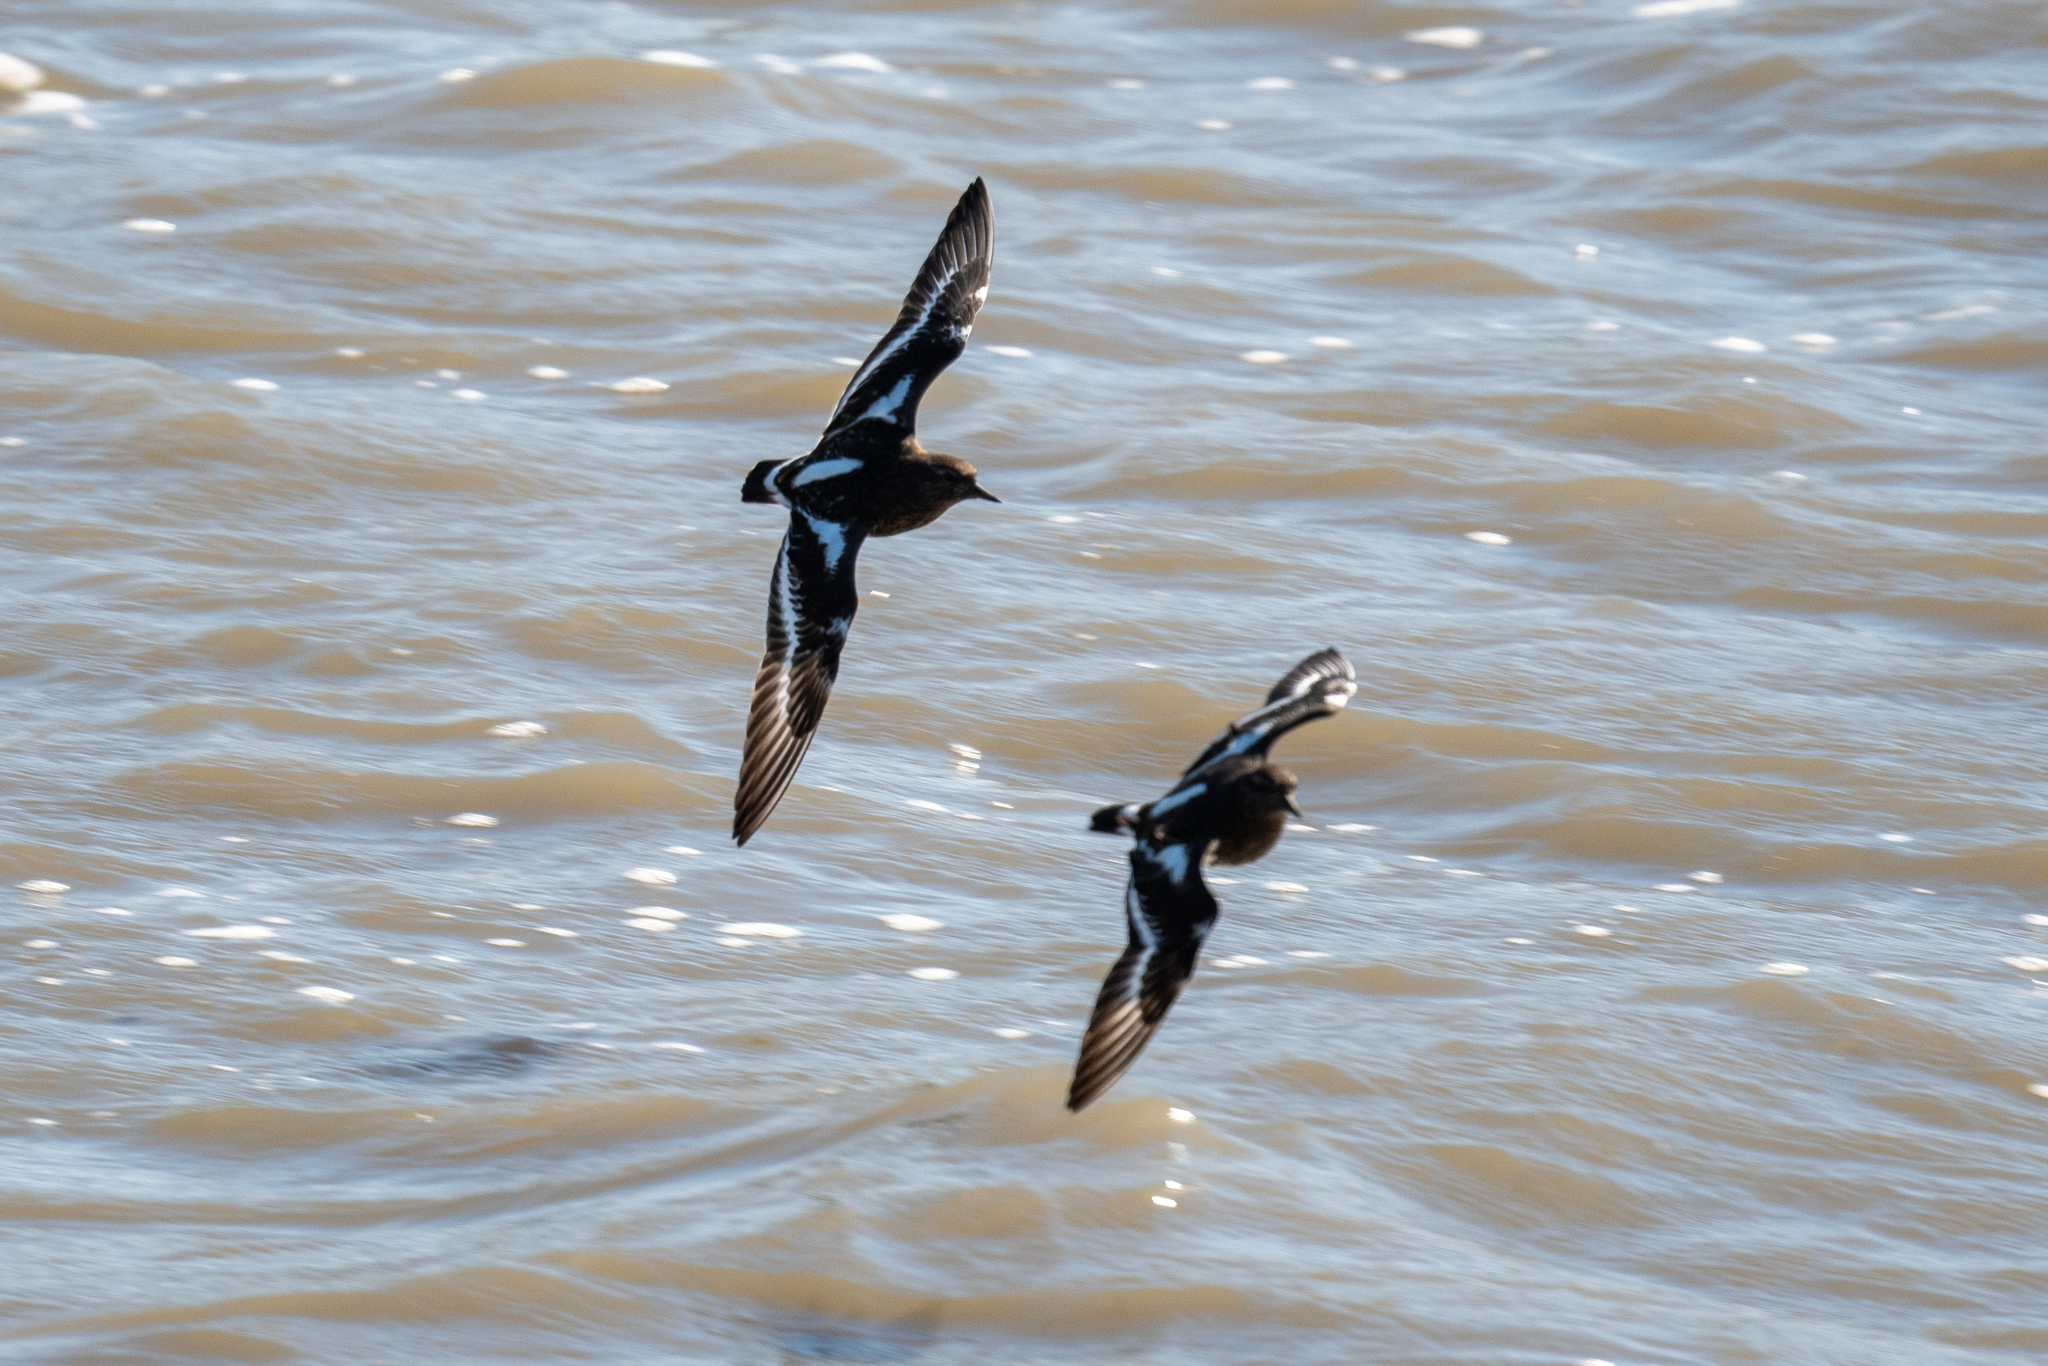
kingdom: Animalia
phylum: Chordata
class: Aves
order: Charadriiformes
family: Scolopacidae
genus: Arenaria
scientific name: Arenaria melanocephala
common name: Black turnstone
